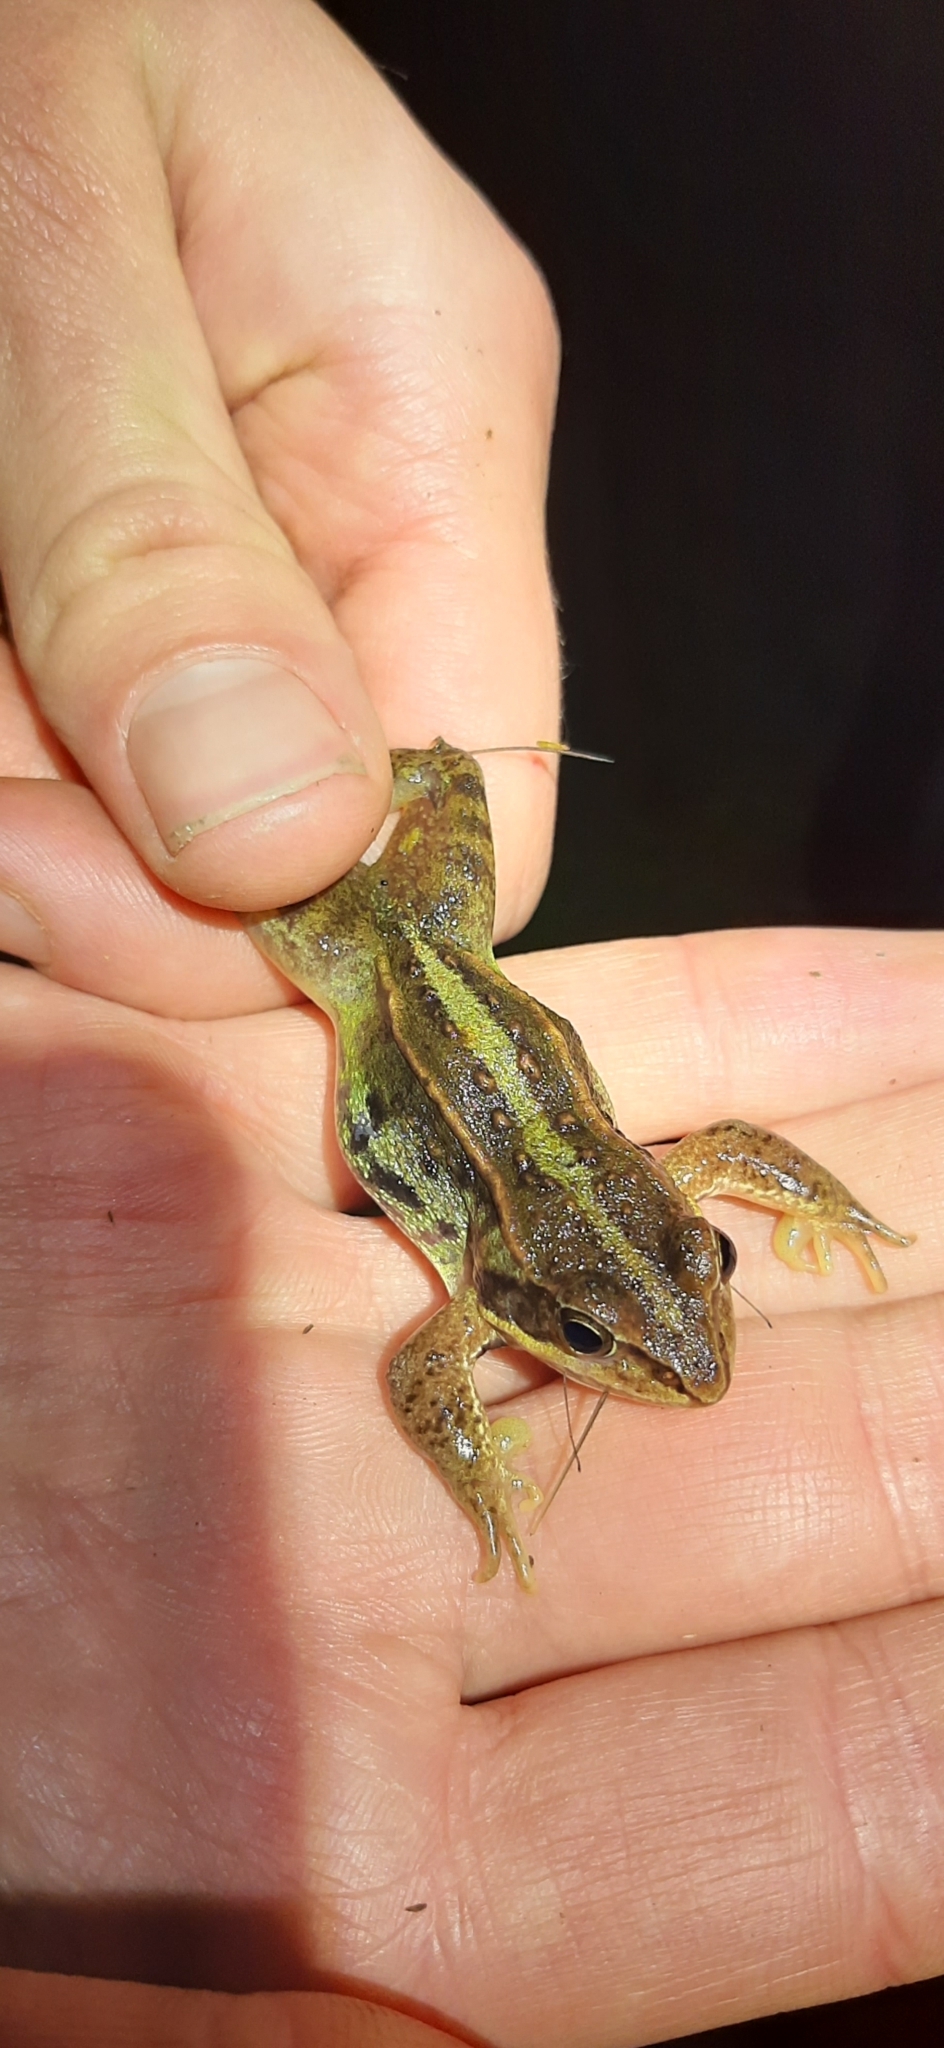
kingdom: Animalia
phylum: Chordata
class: Amphibia
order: Anura
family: Ranidae
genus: Rana
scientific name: Rana arvalis
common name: Moor frog
